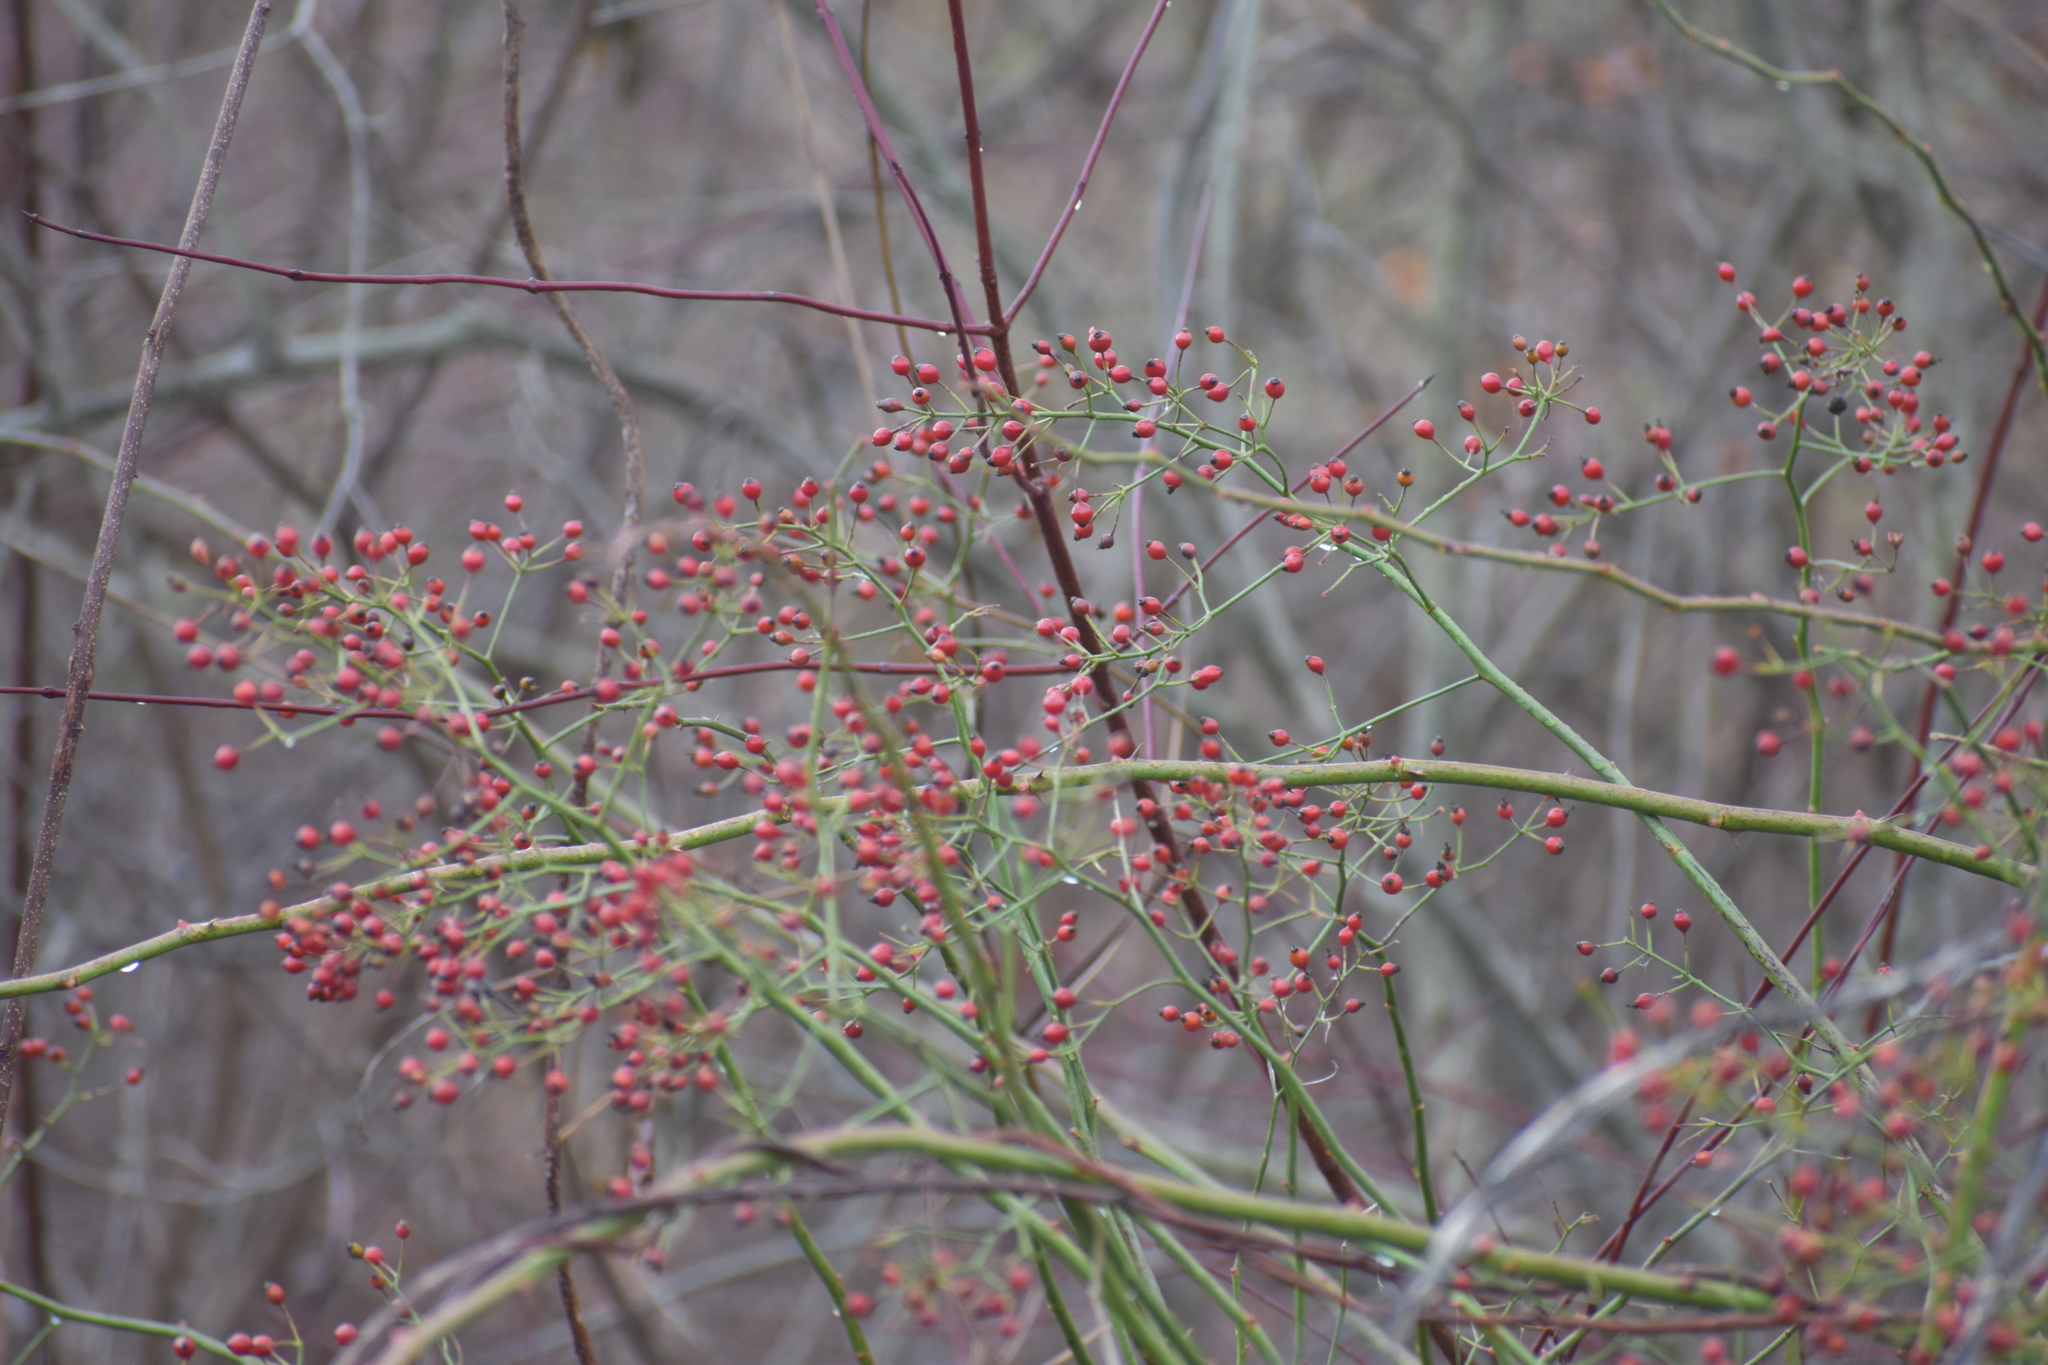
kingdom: Plantae
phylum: Tracheophyta
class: Magnoliopsida
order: Rosales
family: Rosaceae
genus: Rosa
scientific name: Rosa multiflora
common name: Multiflora rose
